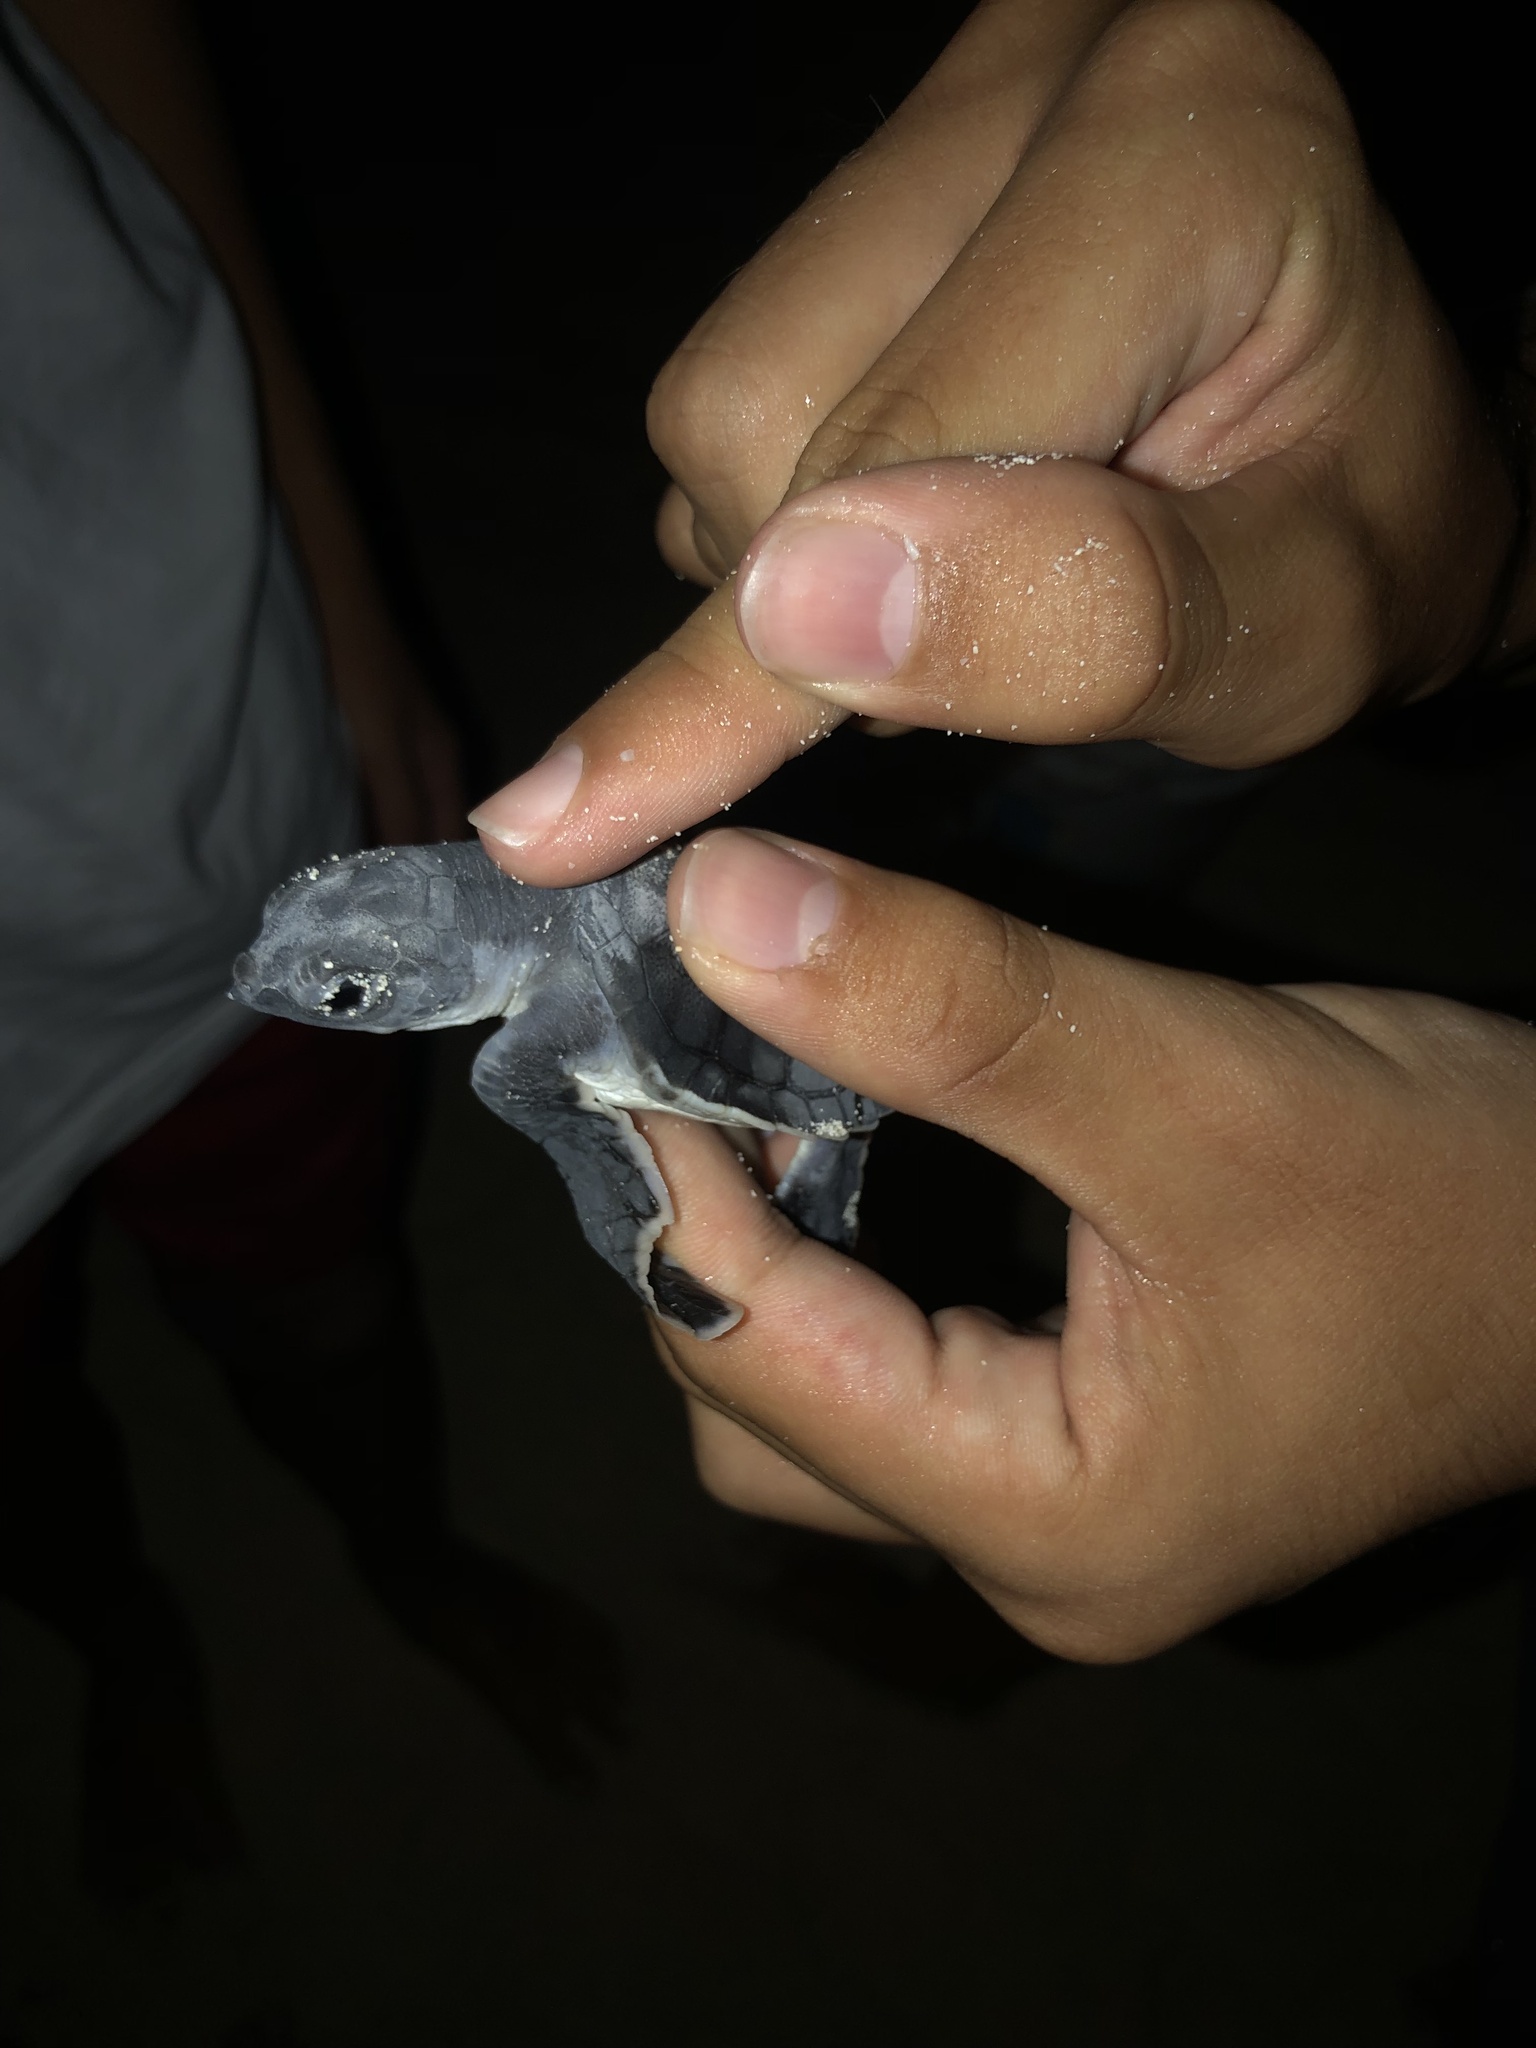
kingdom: Animalia
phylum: Chordata
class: Testudines
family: Cheloniidae
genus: Chelonia
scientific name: Chelonia mydas
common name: Green turtle
